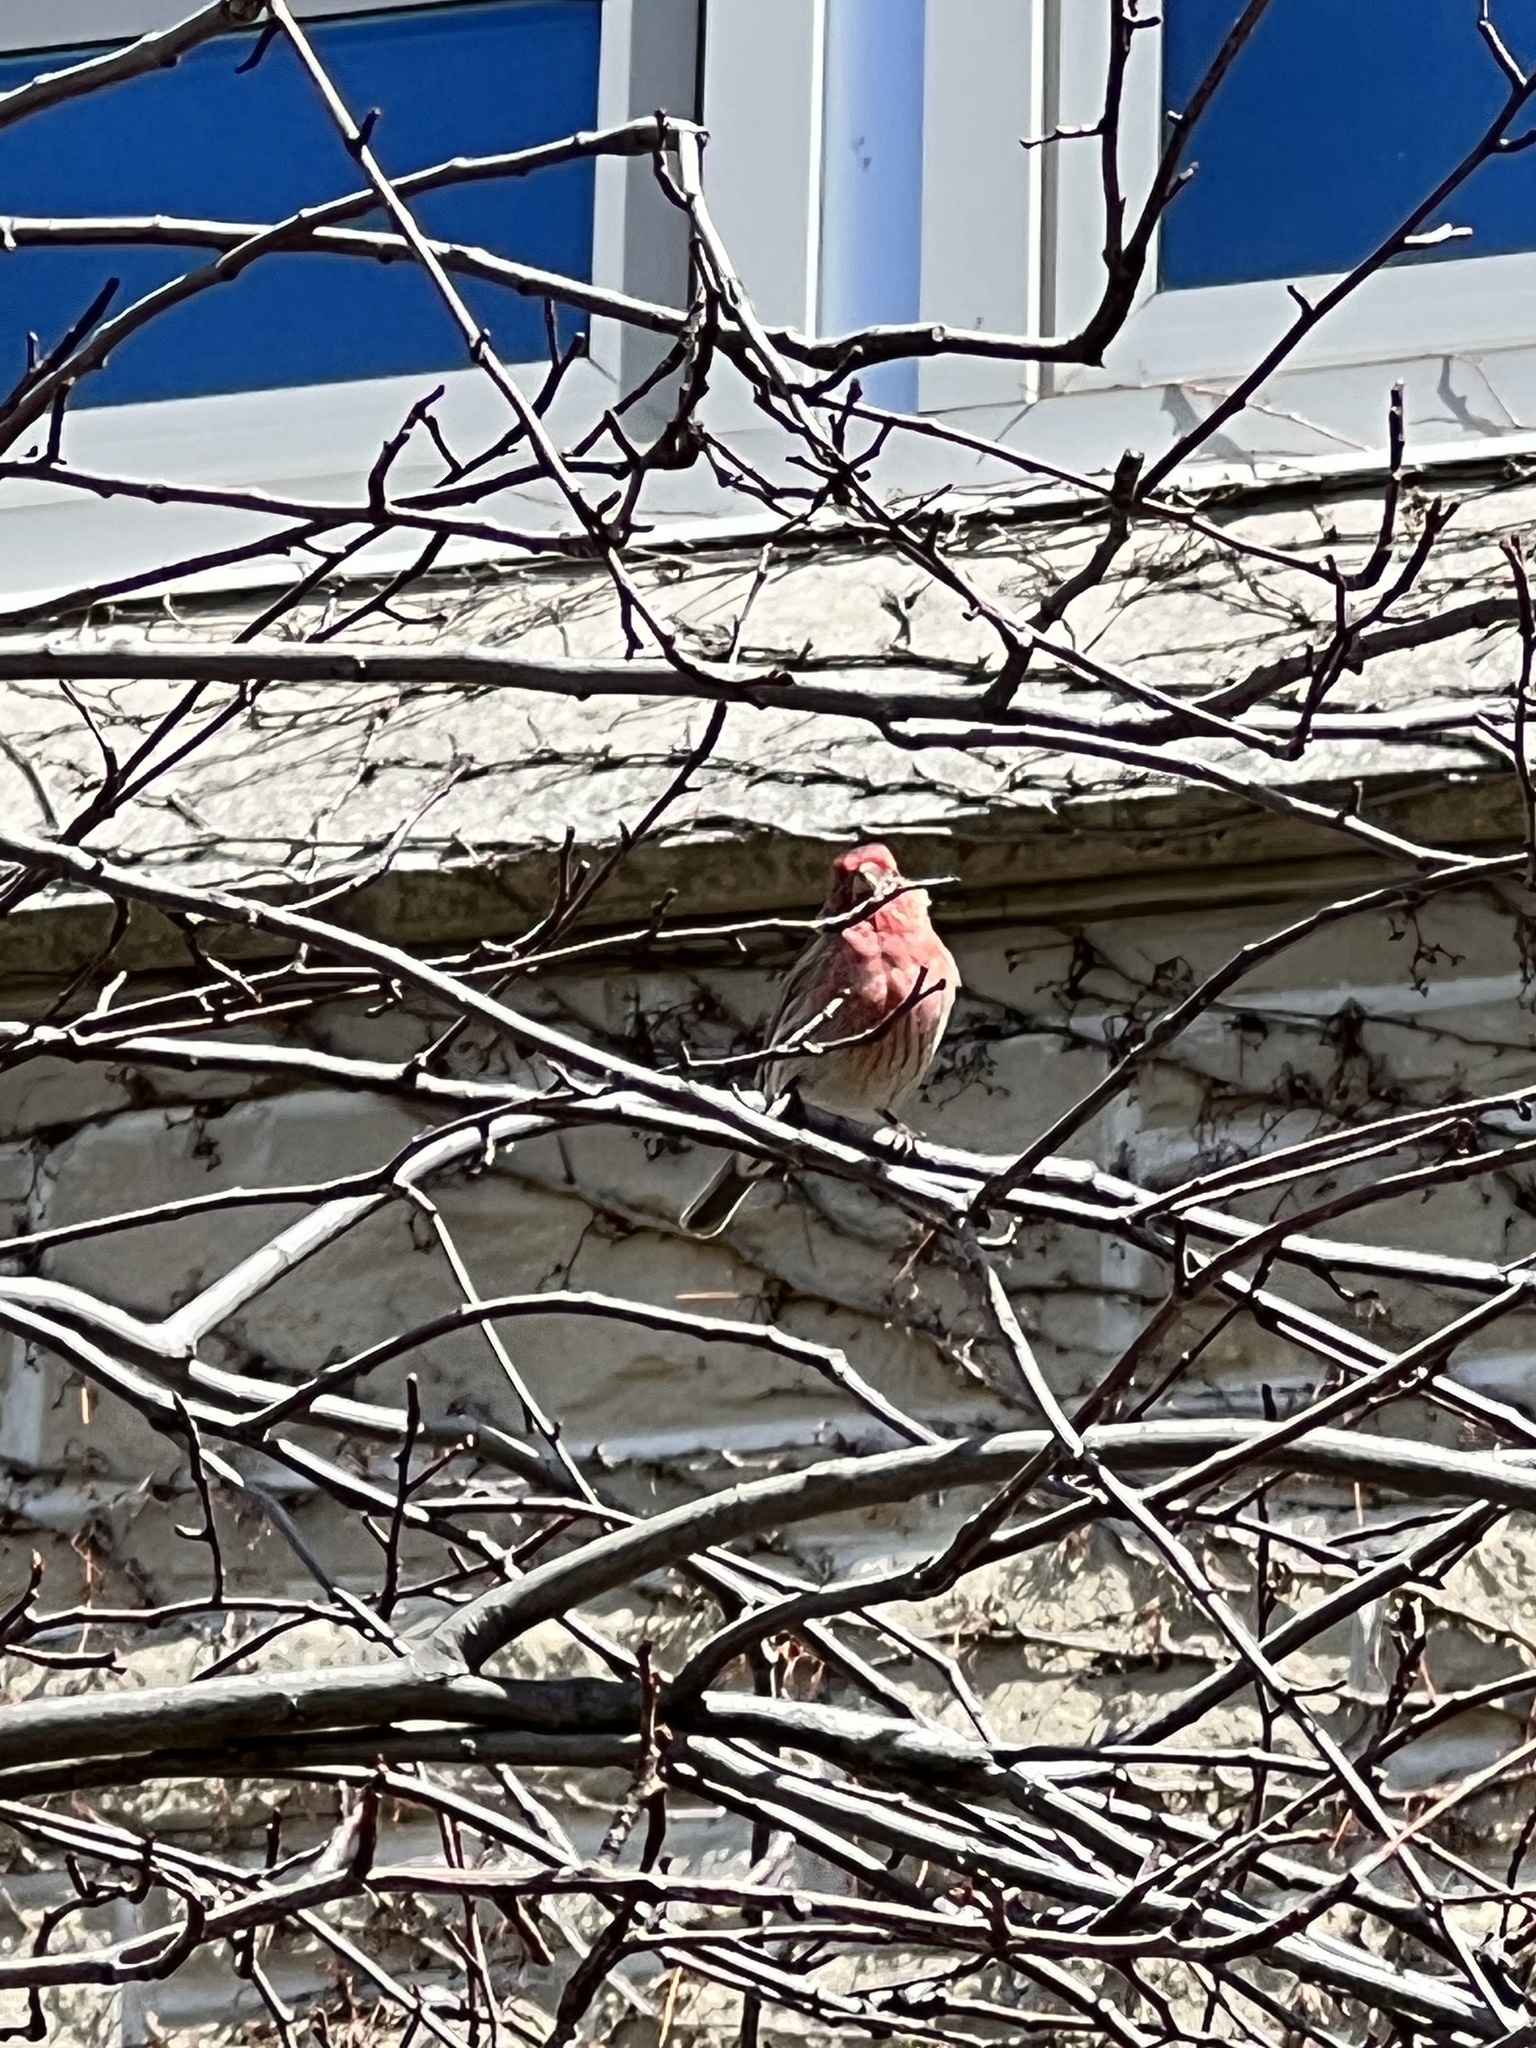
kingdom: Animalia
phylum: Chordata
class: Aves
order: Passeriformes
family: Fringillidae
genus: Haemorhous
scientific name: Haemorhous mexicanus
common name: House finch
